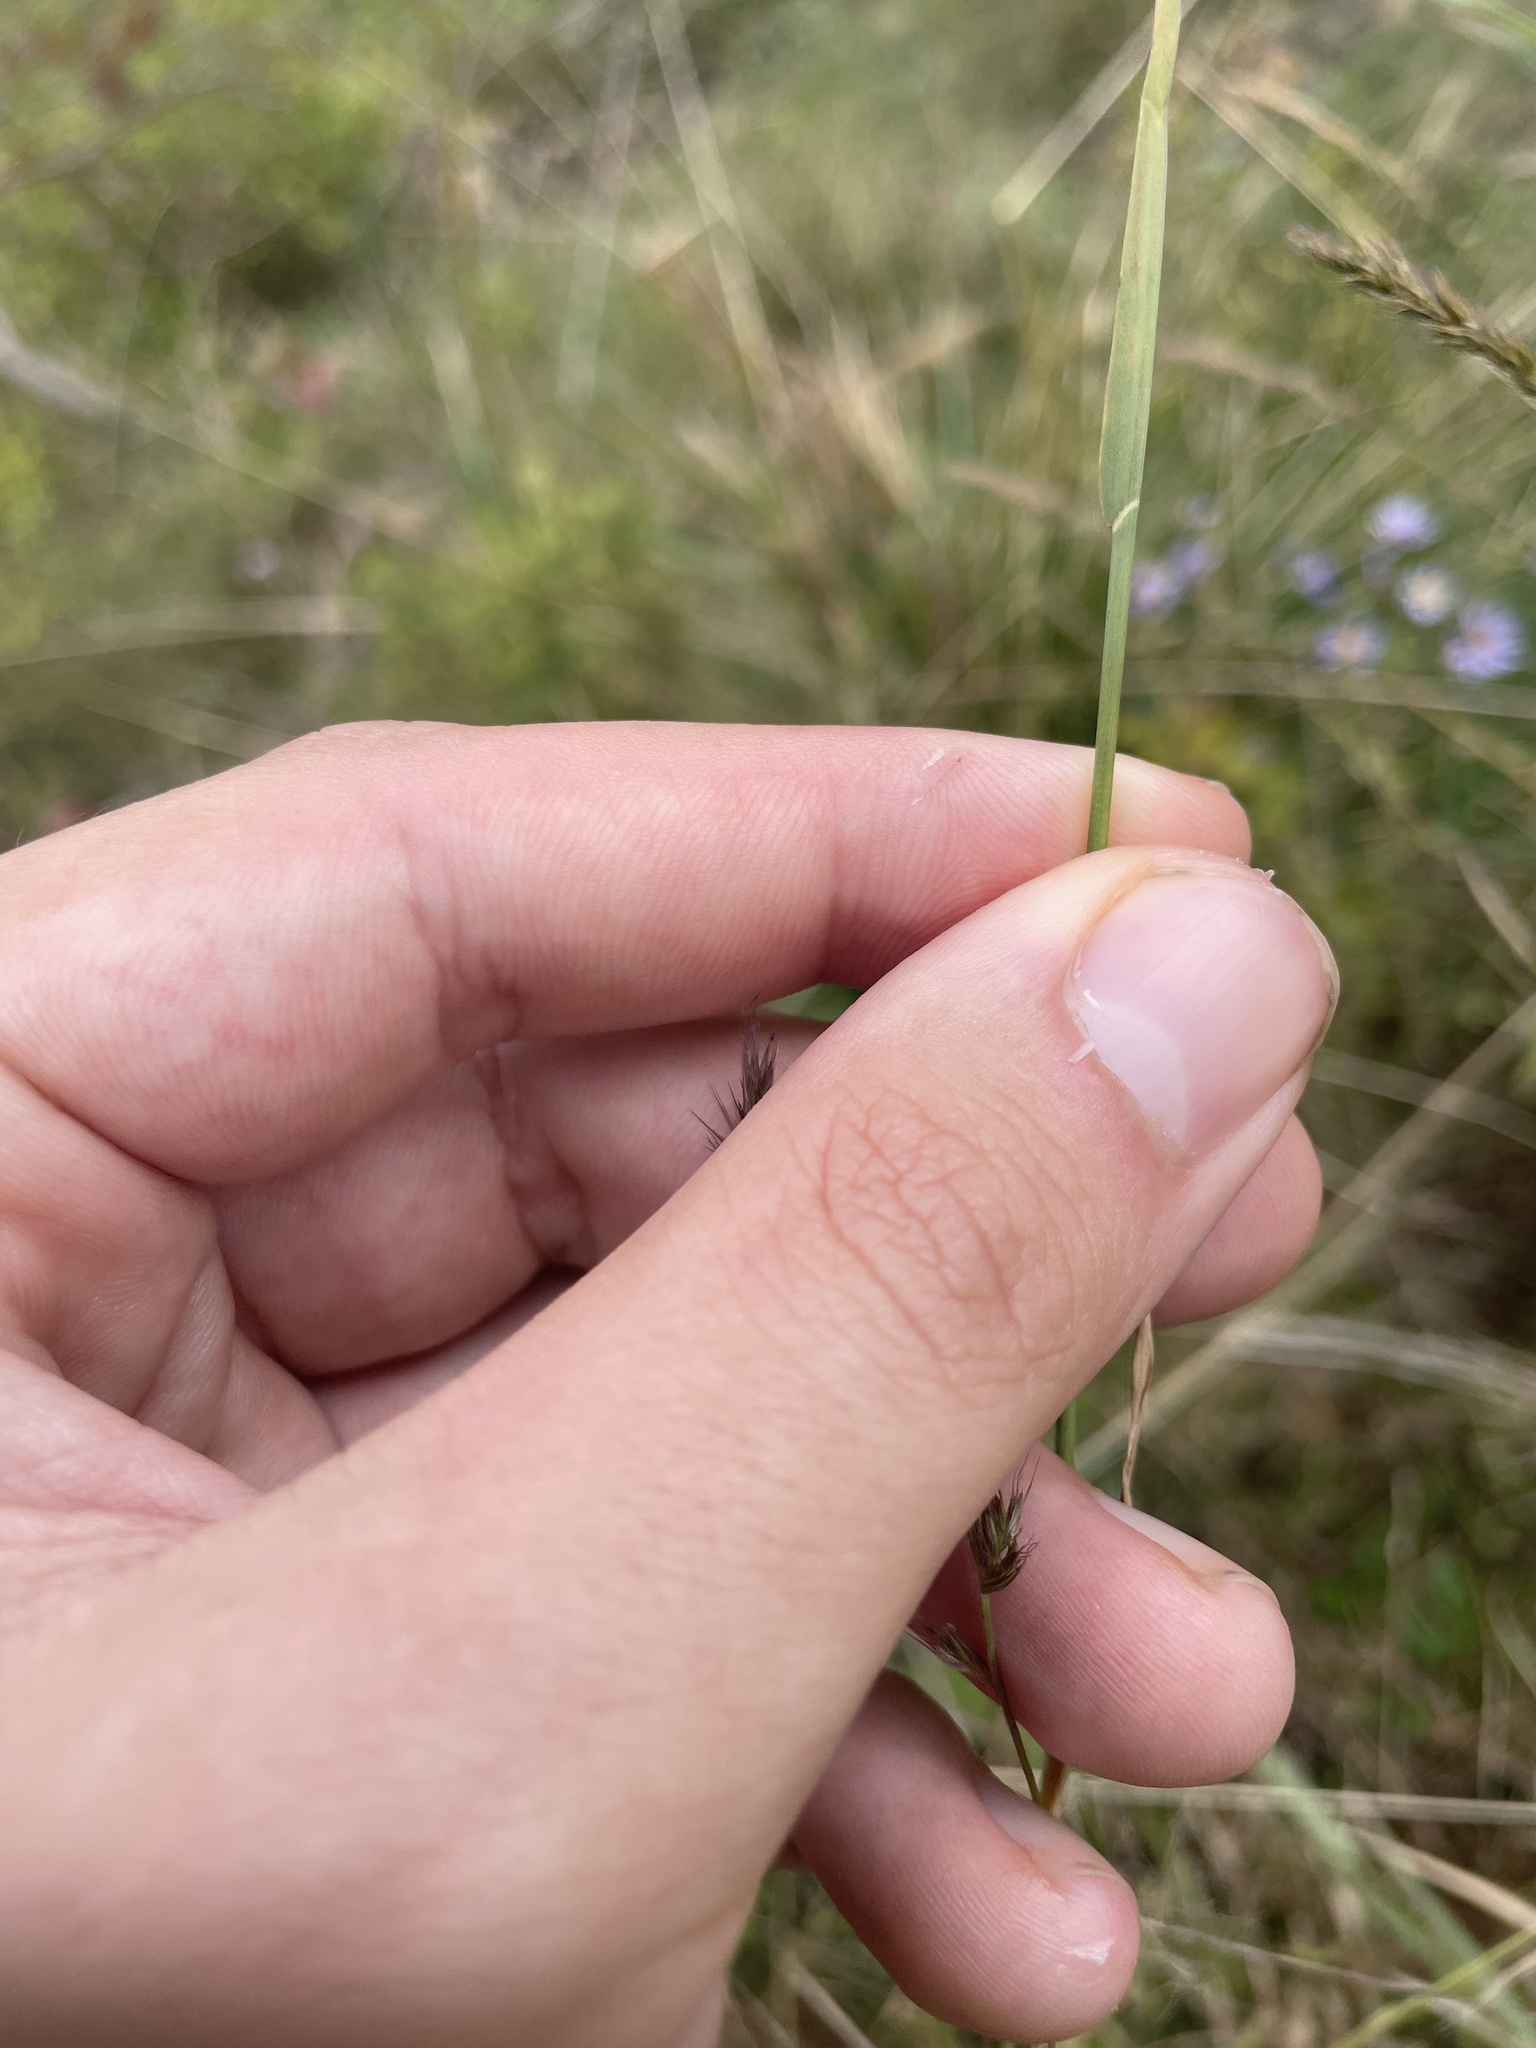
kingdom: Plantae
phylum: Tracheophyta
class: Liliopsida
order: Poales
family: Poaceae
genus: Muhlenbergia
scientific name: Muhlenbergia glomerata
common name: Bog muhly
